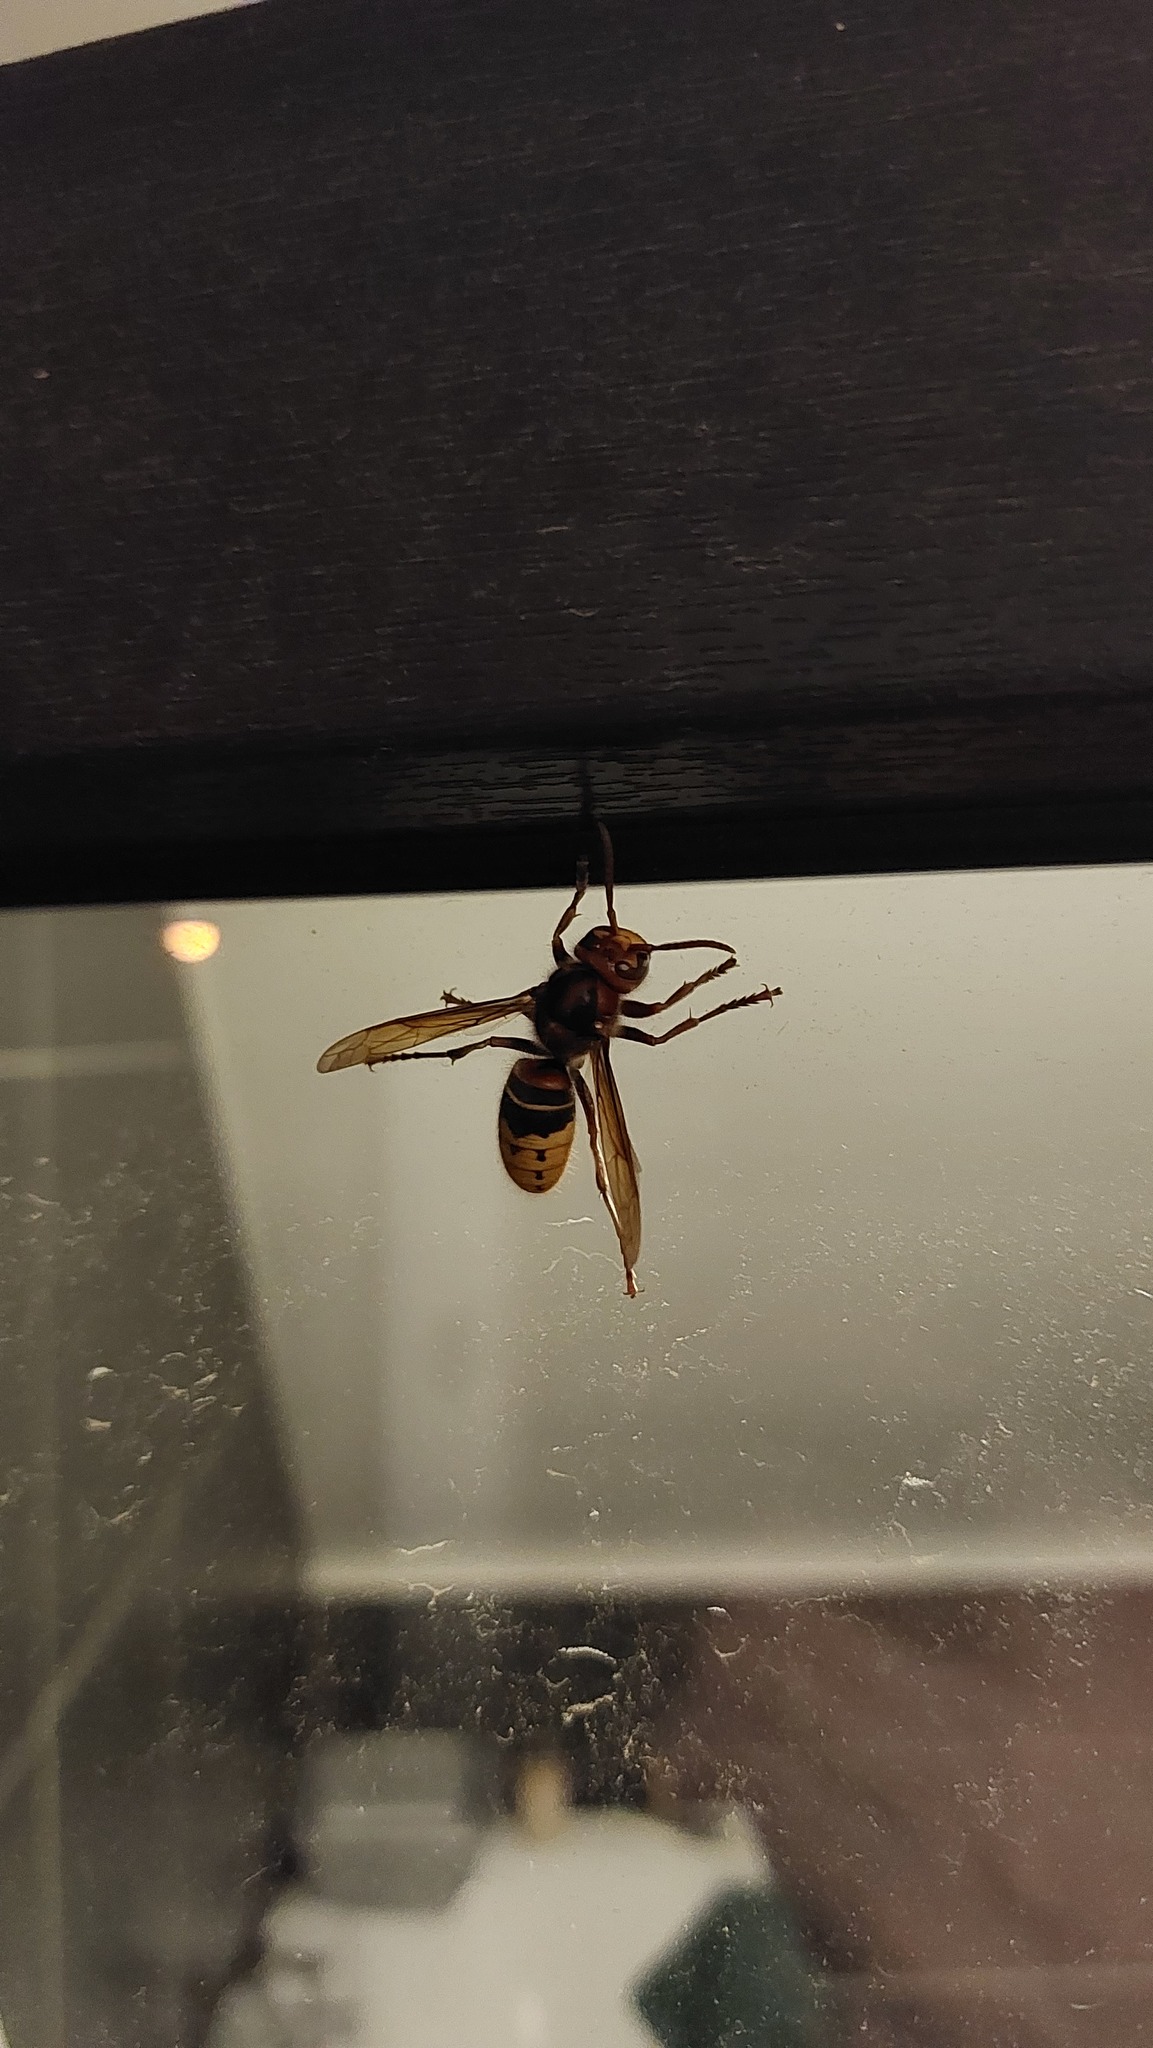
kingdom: Animalia
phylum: Arthropoda
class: Insecta
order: Hymenoptera
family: Vespidae
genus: Vespa
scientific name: Vespa crabro
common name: Hornet
